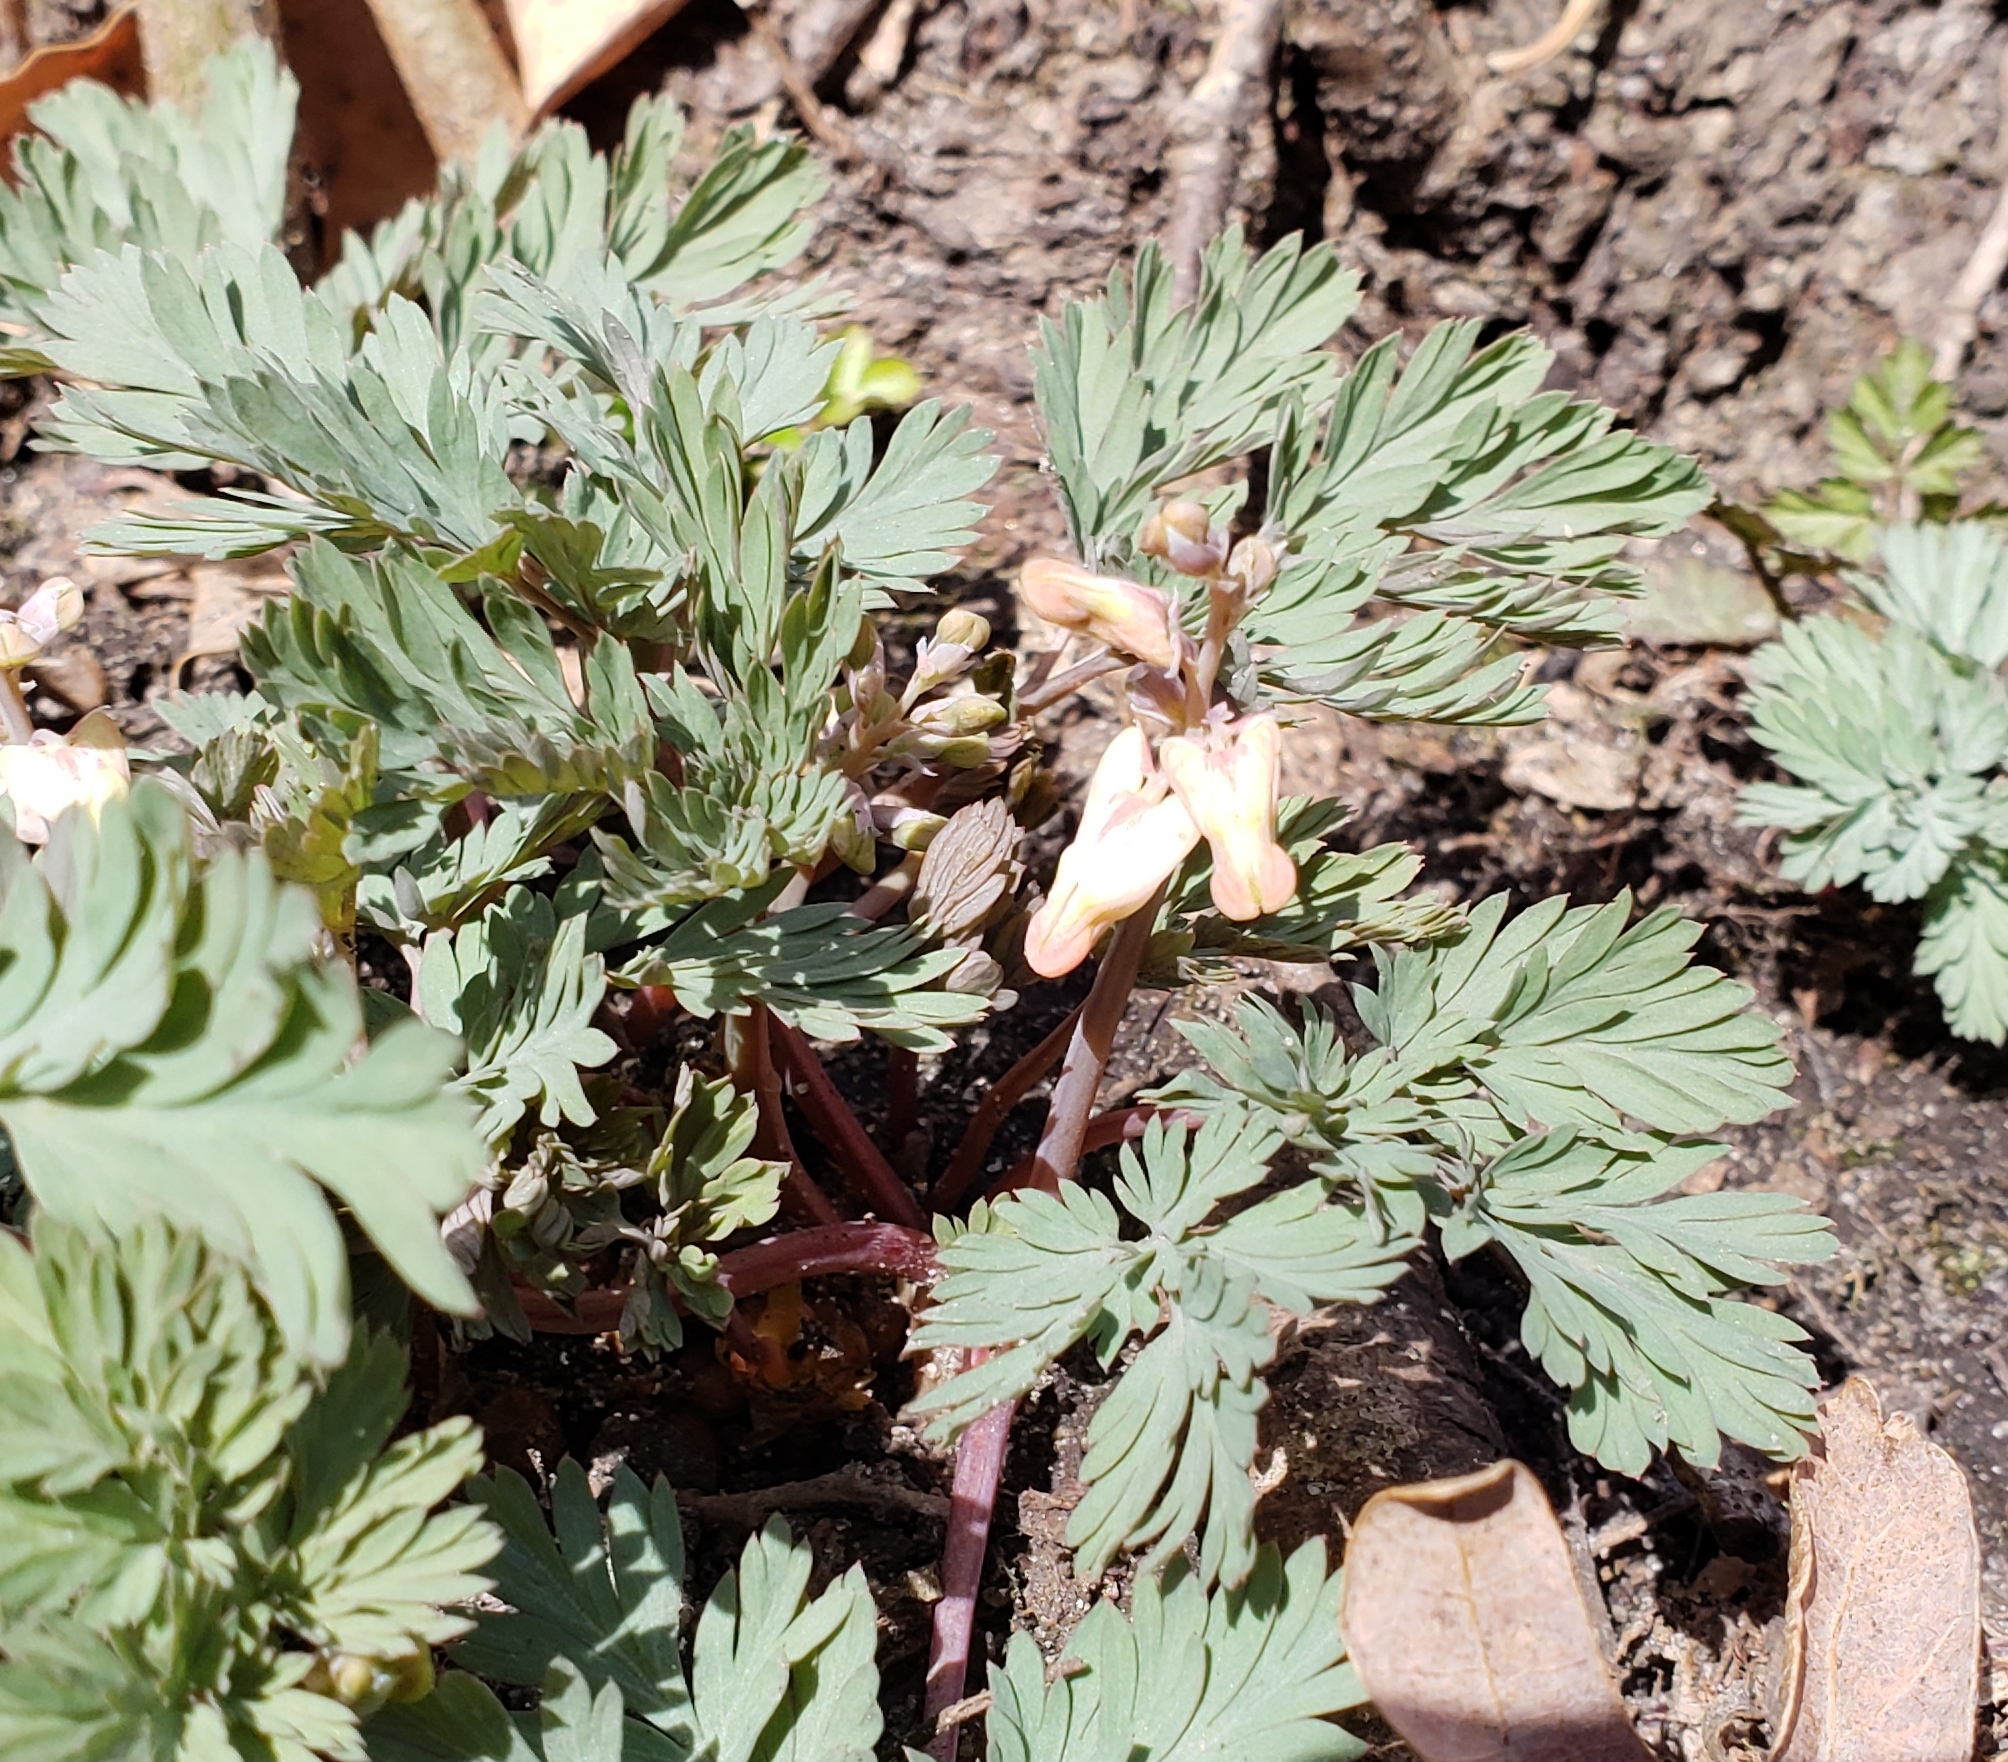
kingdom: Plantae
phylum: Tracheophyta
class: Magnoliopsida
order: Ranunculales
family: Papaveraceae
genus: Dicentra
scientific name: Dicentra cucullaria
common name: Dutchman's breeches
